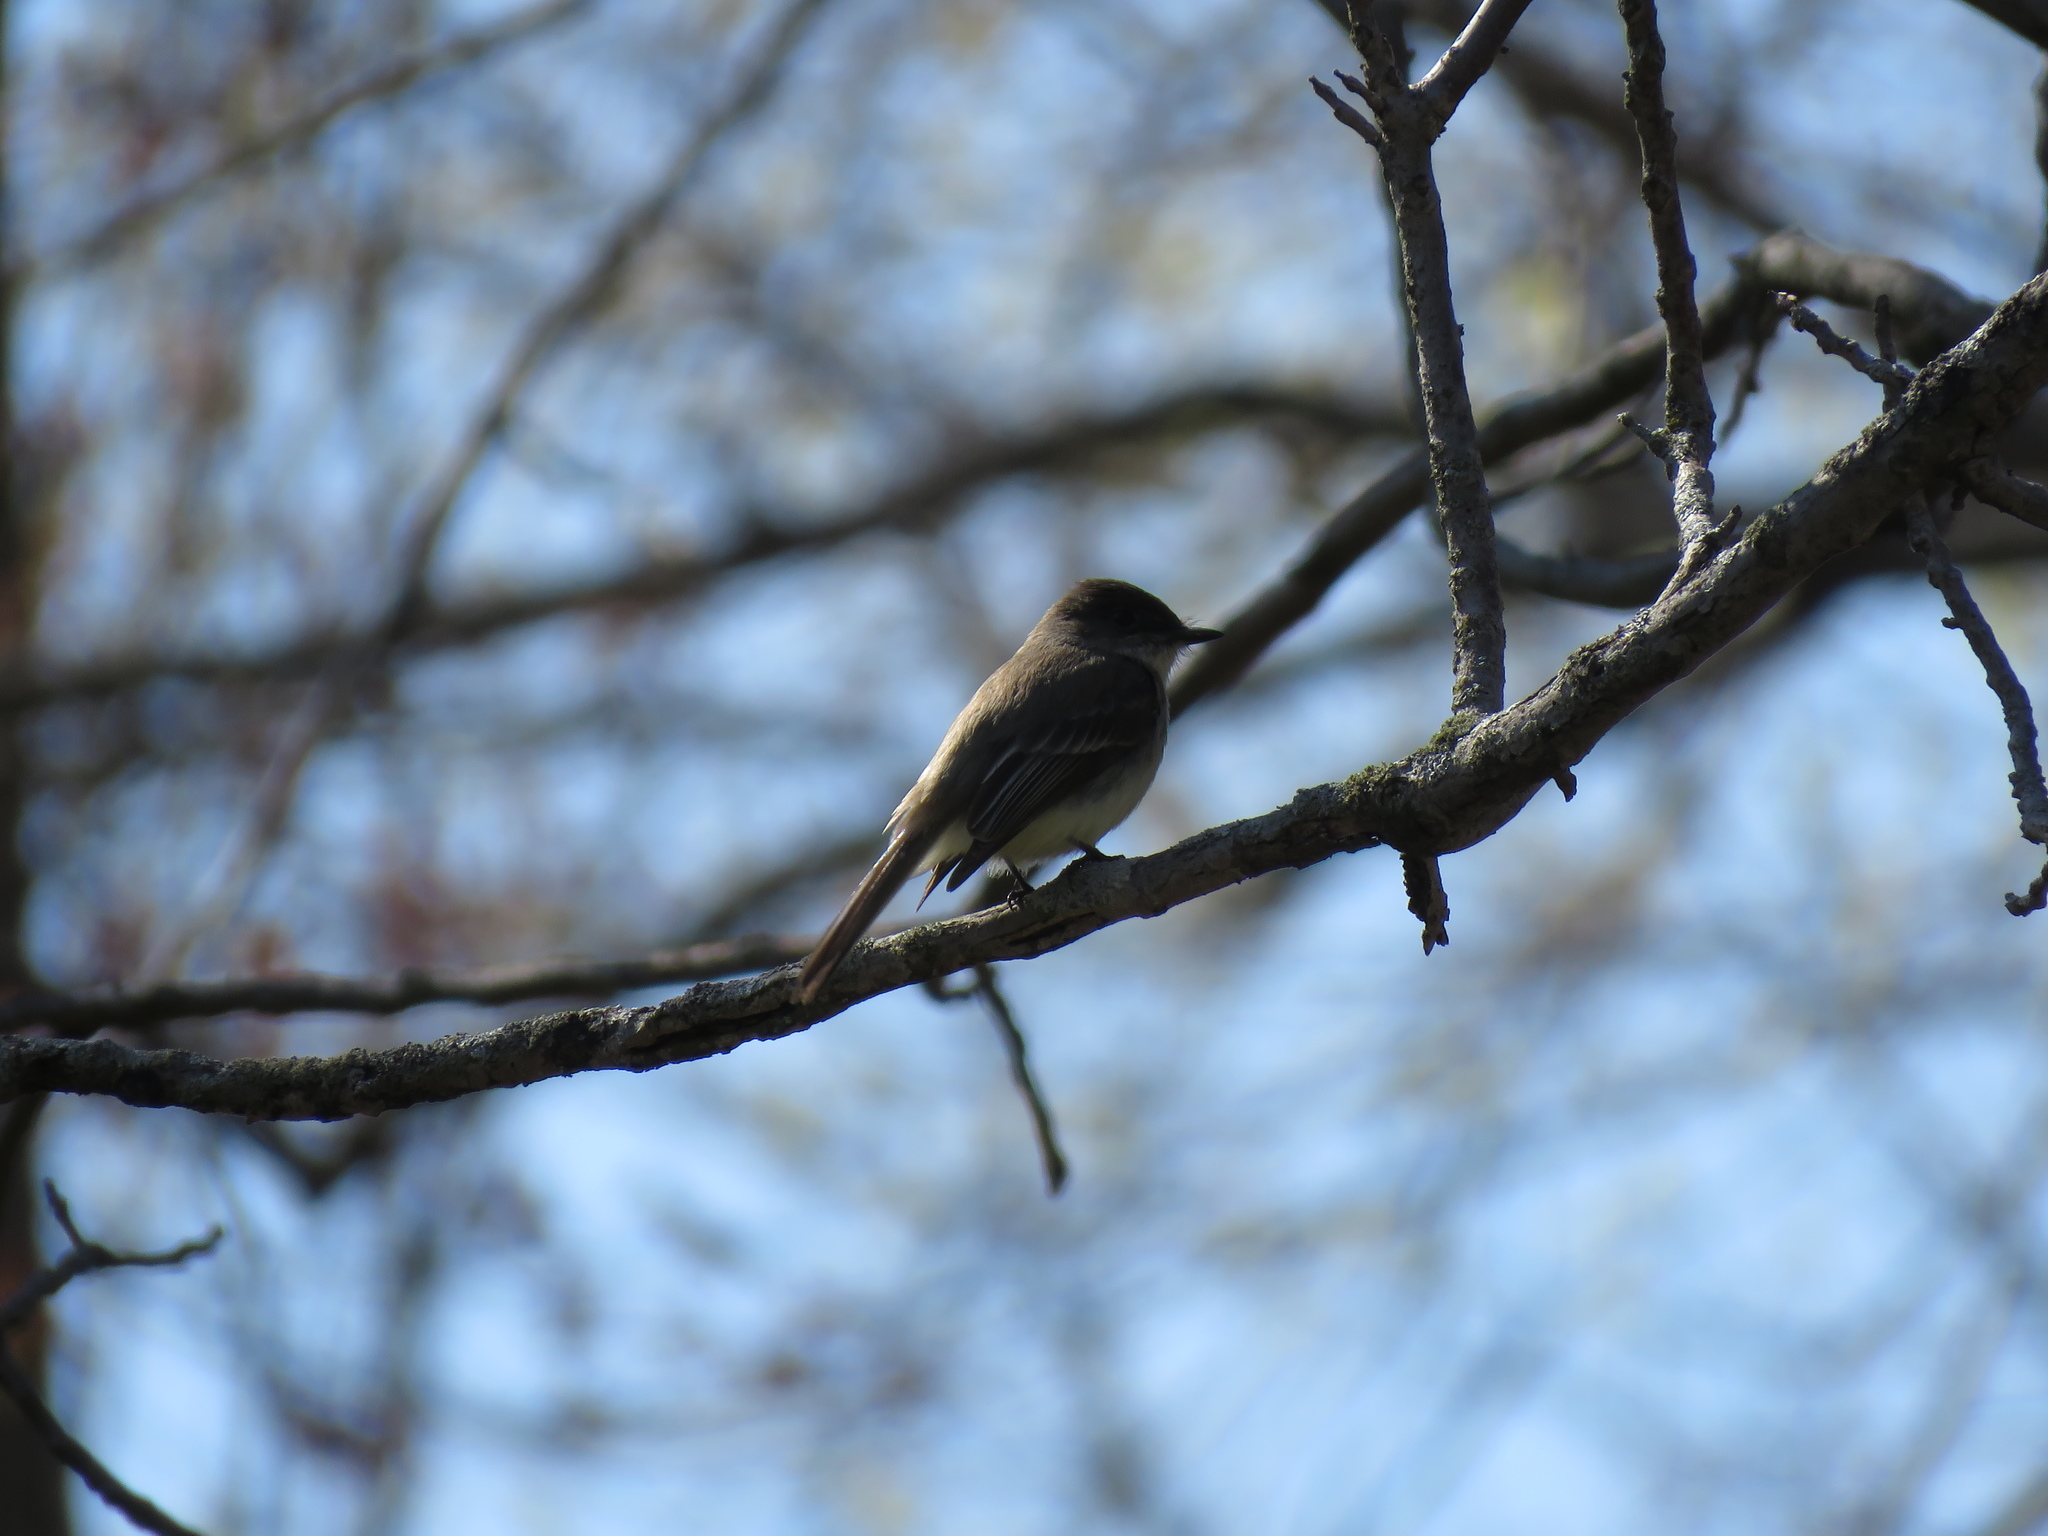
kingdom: Animalia
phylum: Chordata
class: Aves
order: Passeriformes
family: Tyrannidae
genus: Sayornis
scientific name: Sayornis phoebe
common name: Eastern phoebe
